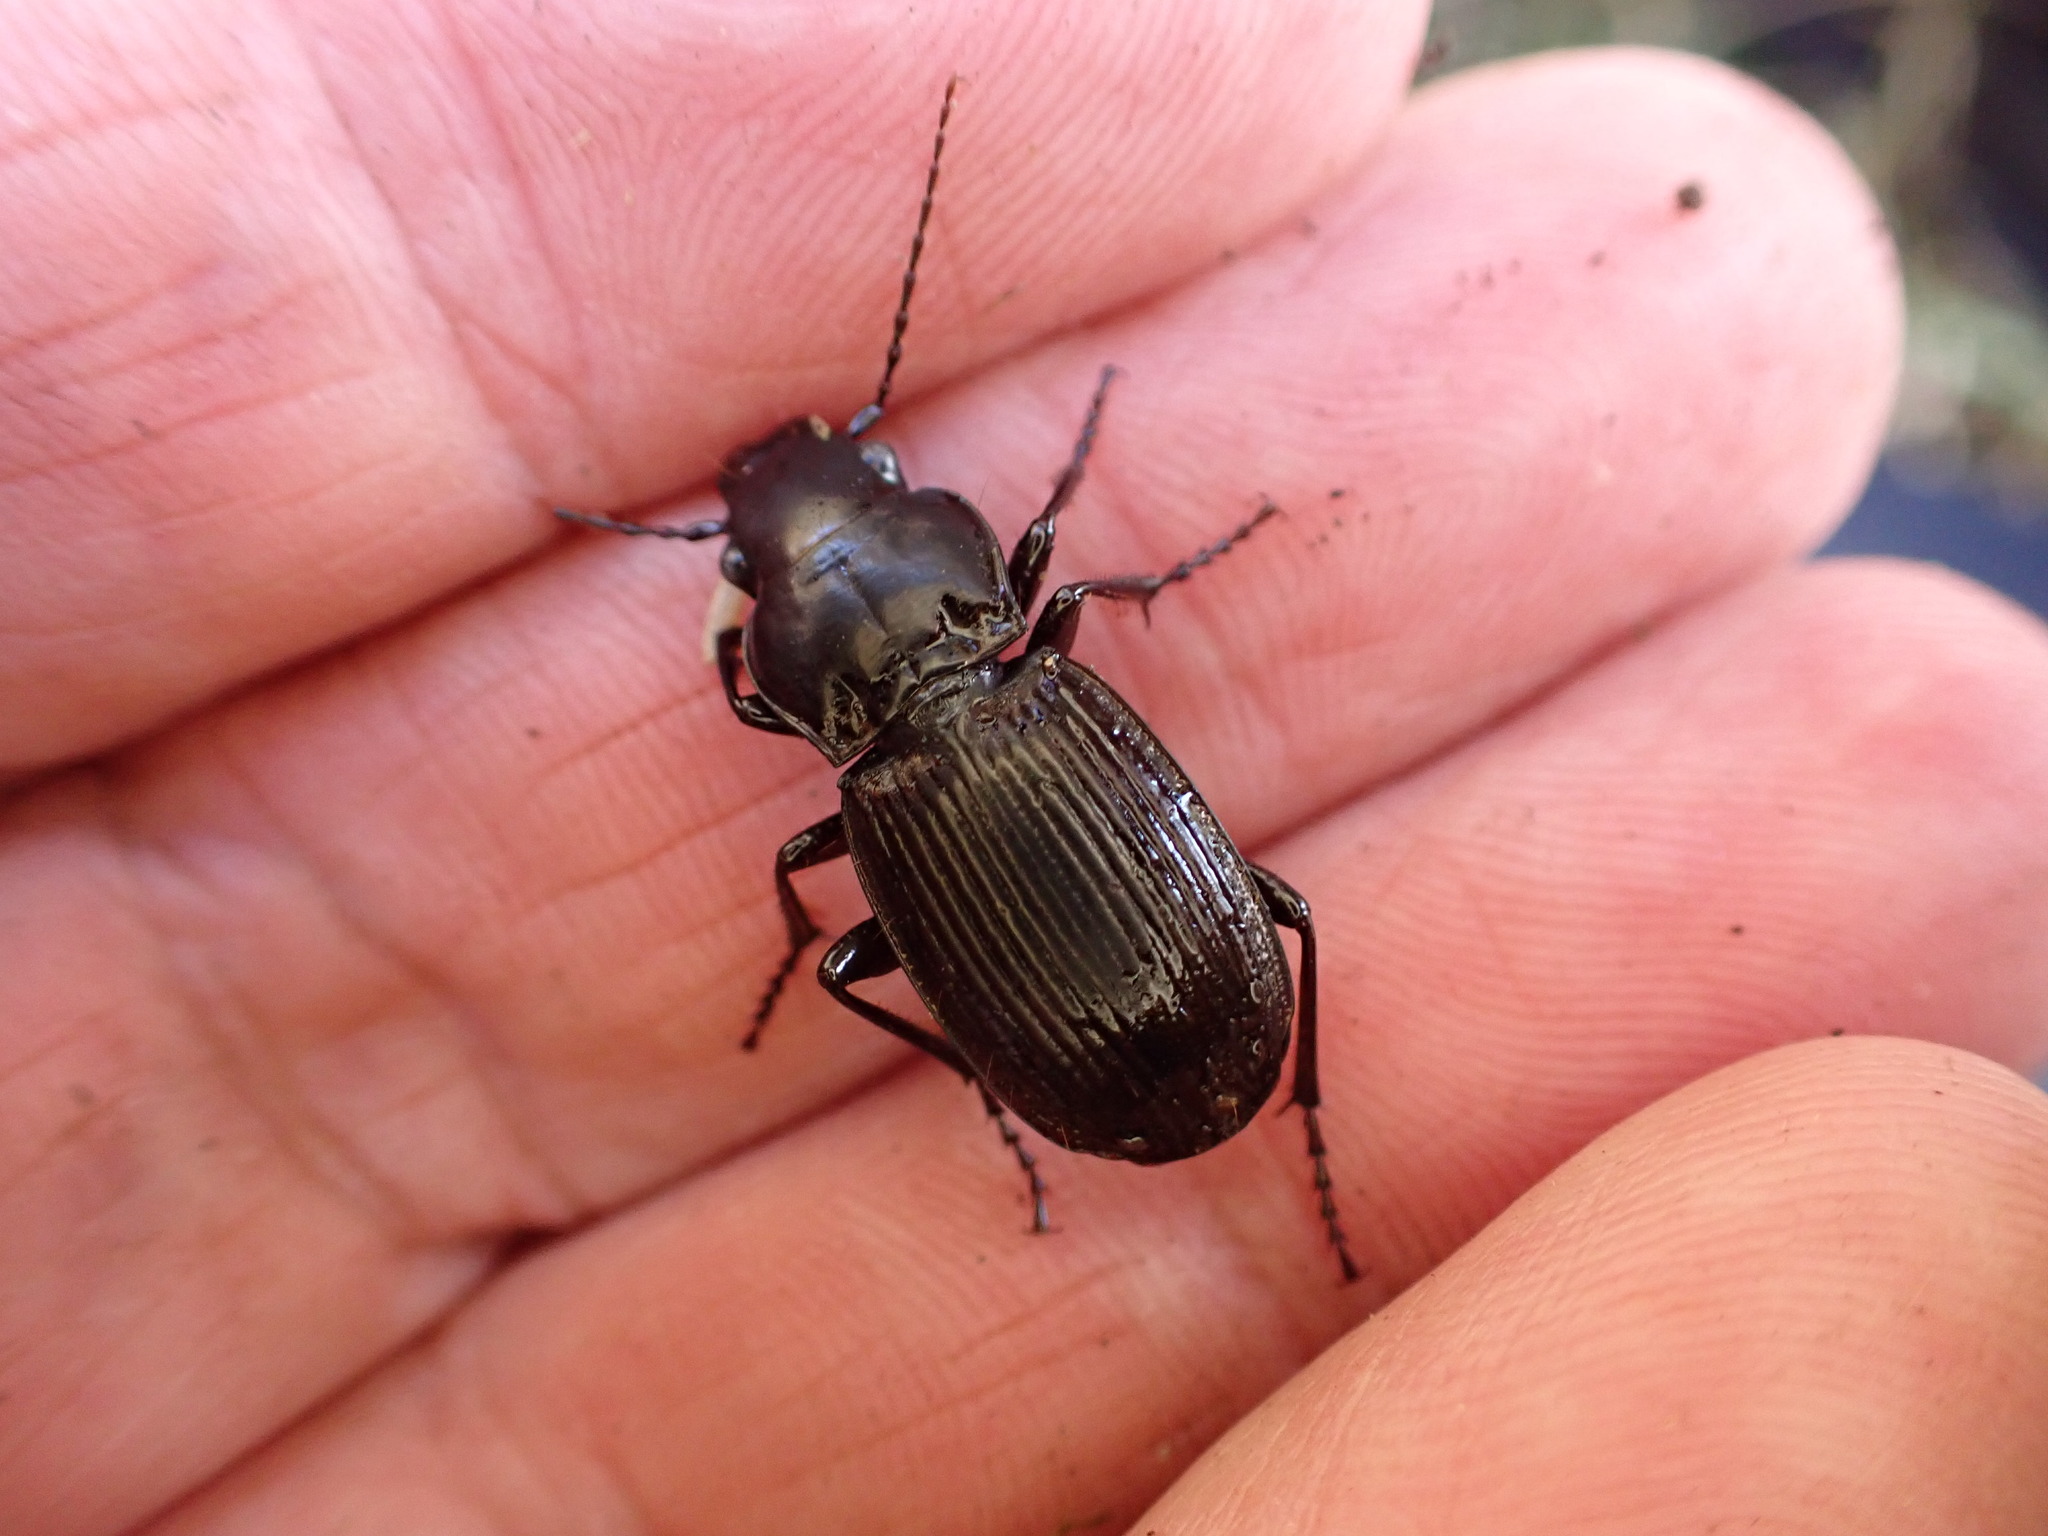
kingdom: Animalia
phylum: Arthropoda
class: Insecta
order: Coleoptera
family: Carabidae
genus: Megadromus
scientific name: Megadromus guerinii
